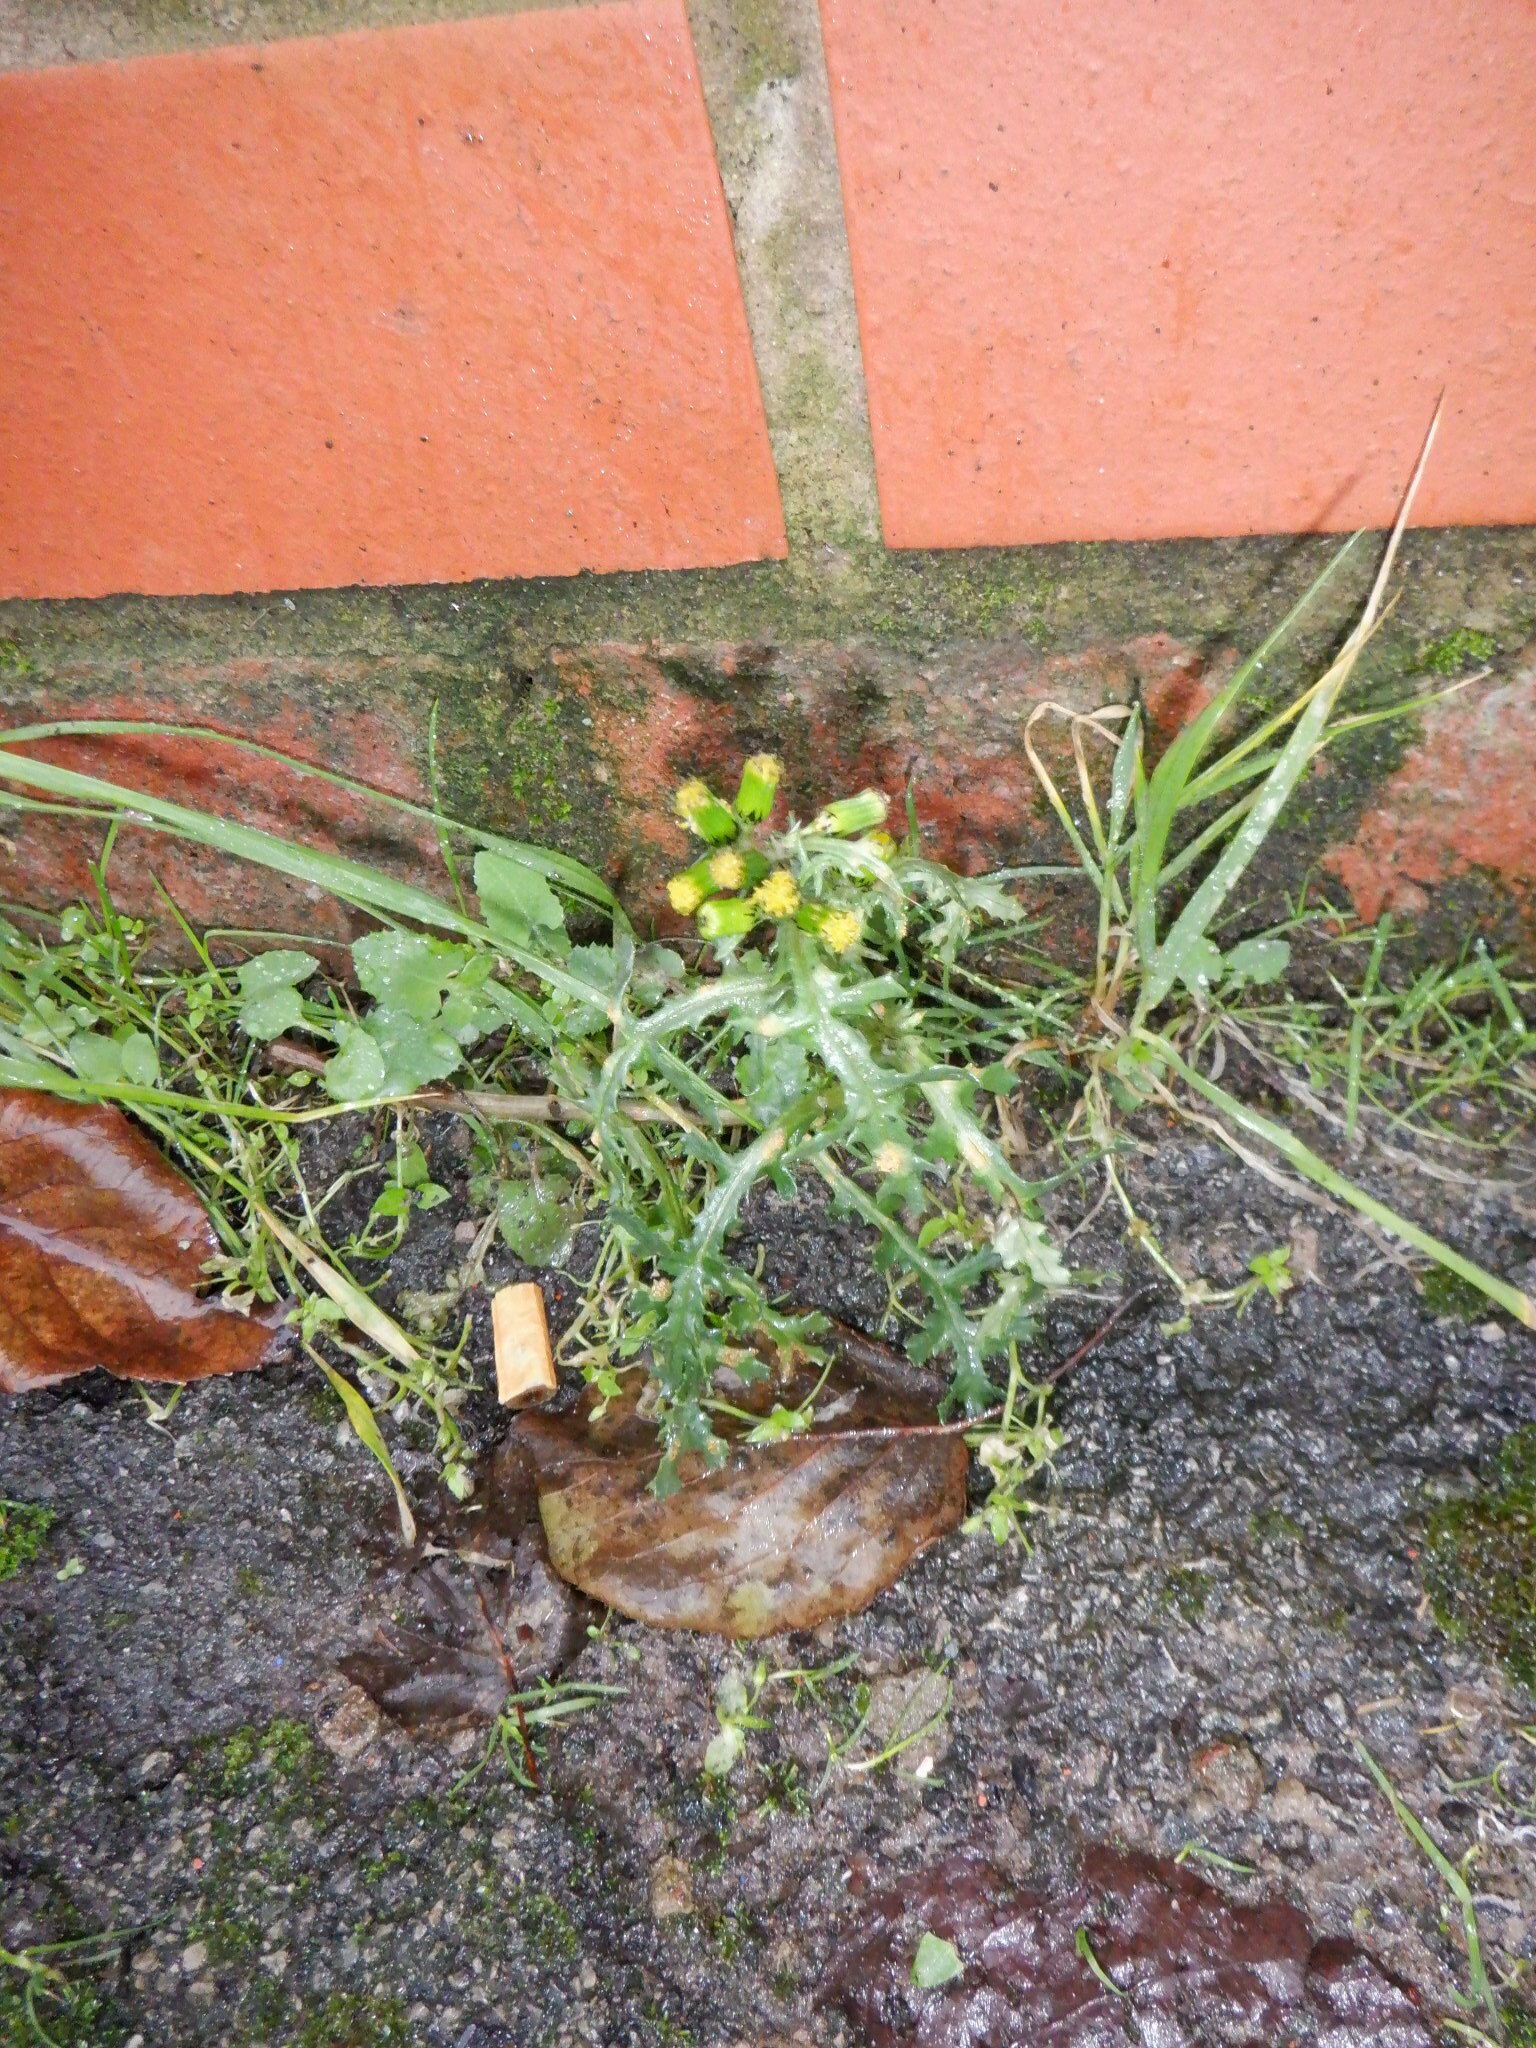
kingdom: Plantae
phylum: Tracheophyta
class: Magnoliopsida
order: Asterales
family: Asteraceae
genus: Senecio
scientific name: Senecio vulgaris
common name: Old-man-in-the-spring
